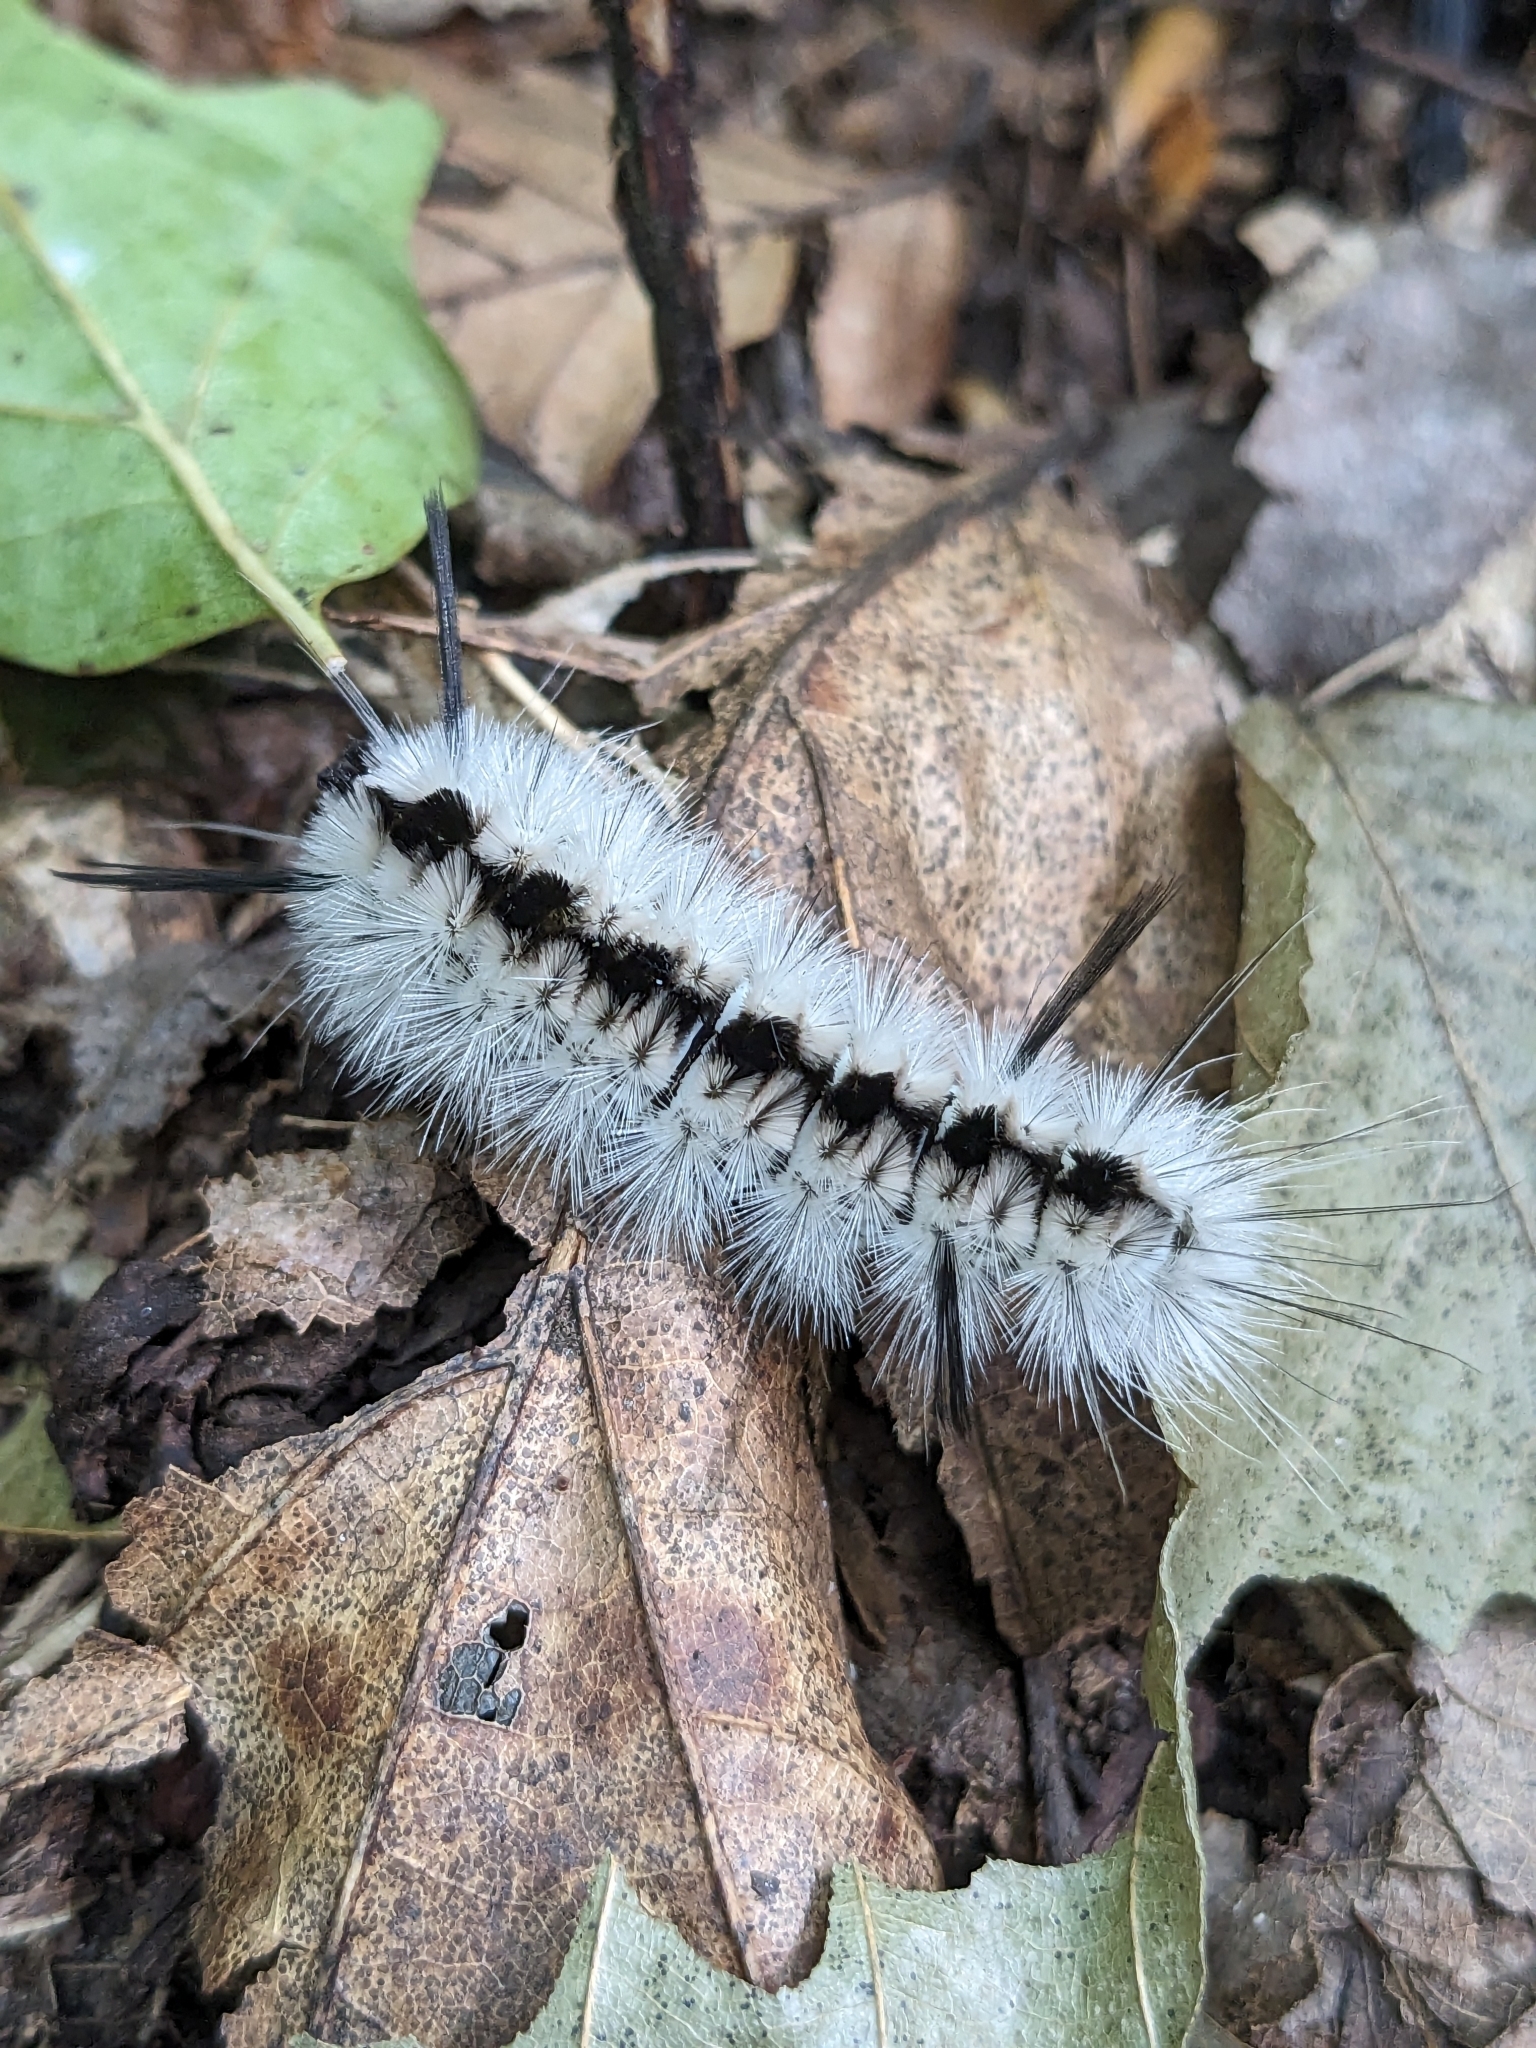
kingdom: Animalia
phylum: Arthropoda
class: Insecta
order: Lepidoptera
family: Erebidae
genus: Lophocampa
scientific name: Lophocampa caryae
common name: Hickory tussock moth
